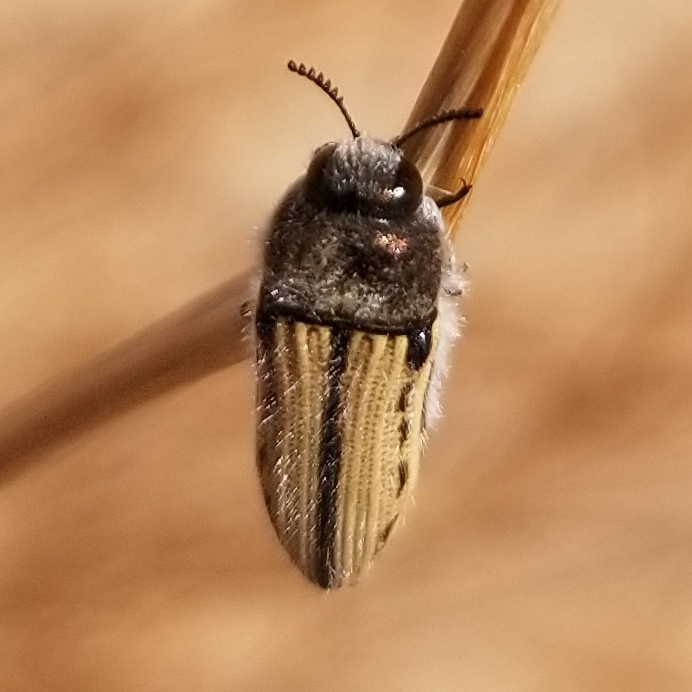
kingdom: Animalia
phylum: Arthropoda
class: Insecta
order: Coleoptera
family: Buprestidae
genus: Acmaeodera
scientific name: Acmaeodera pubiventris
